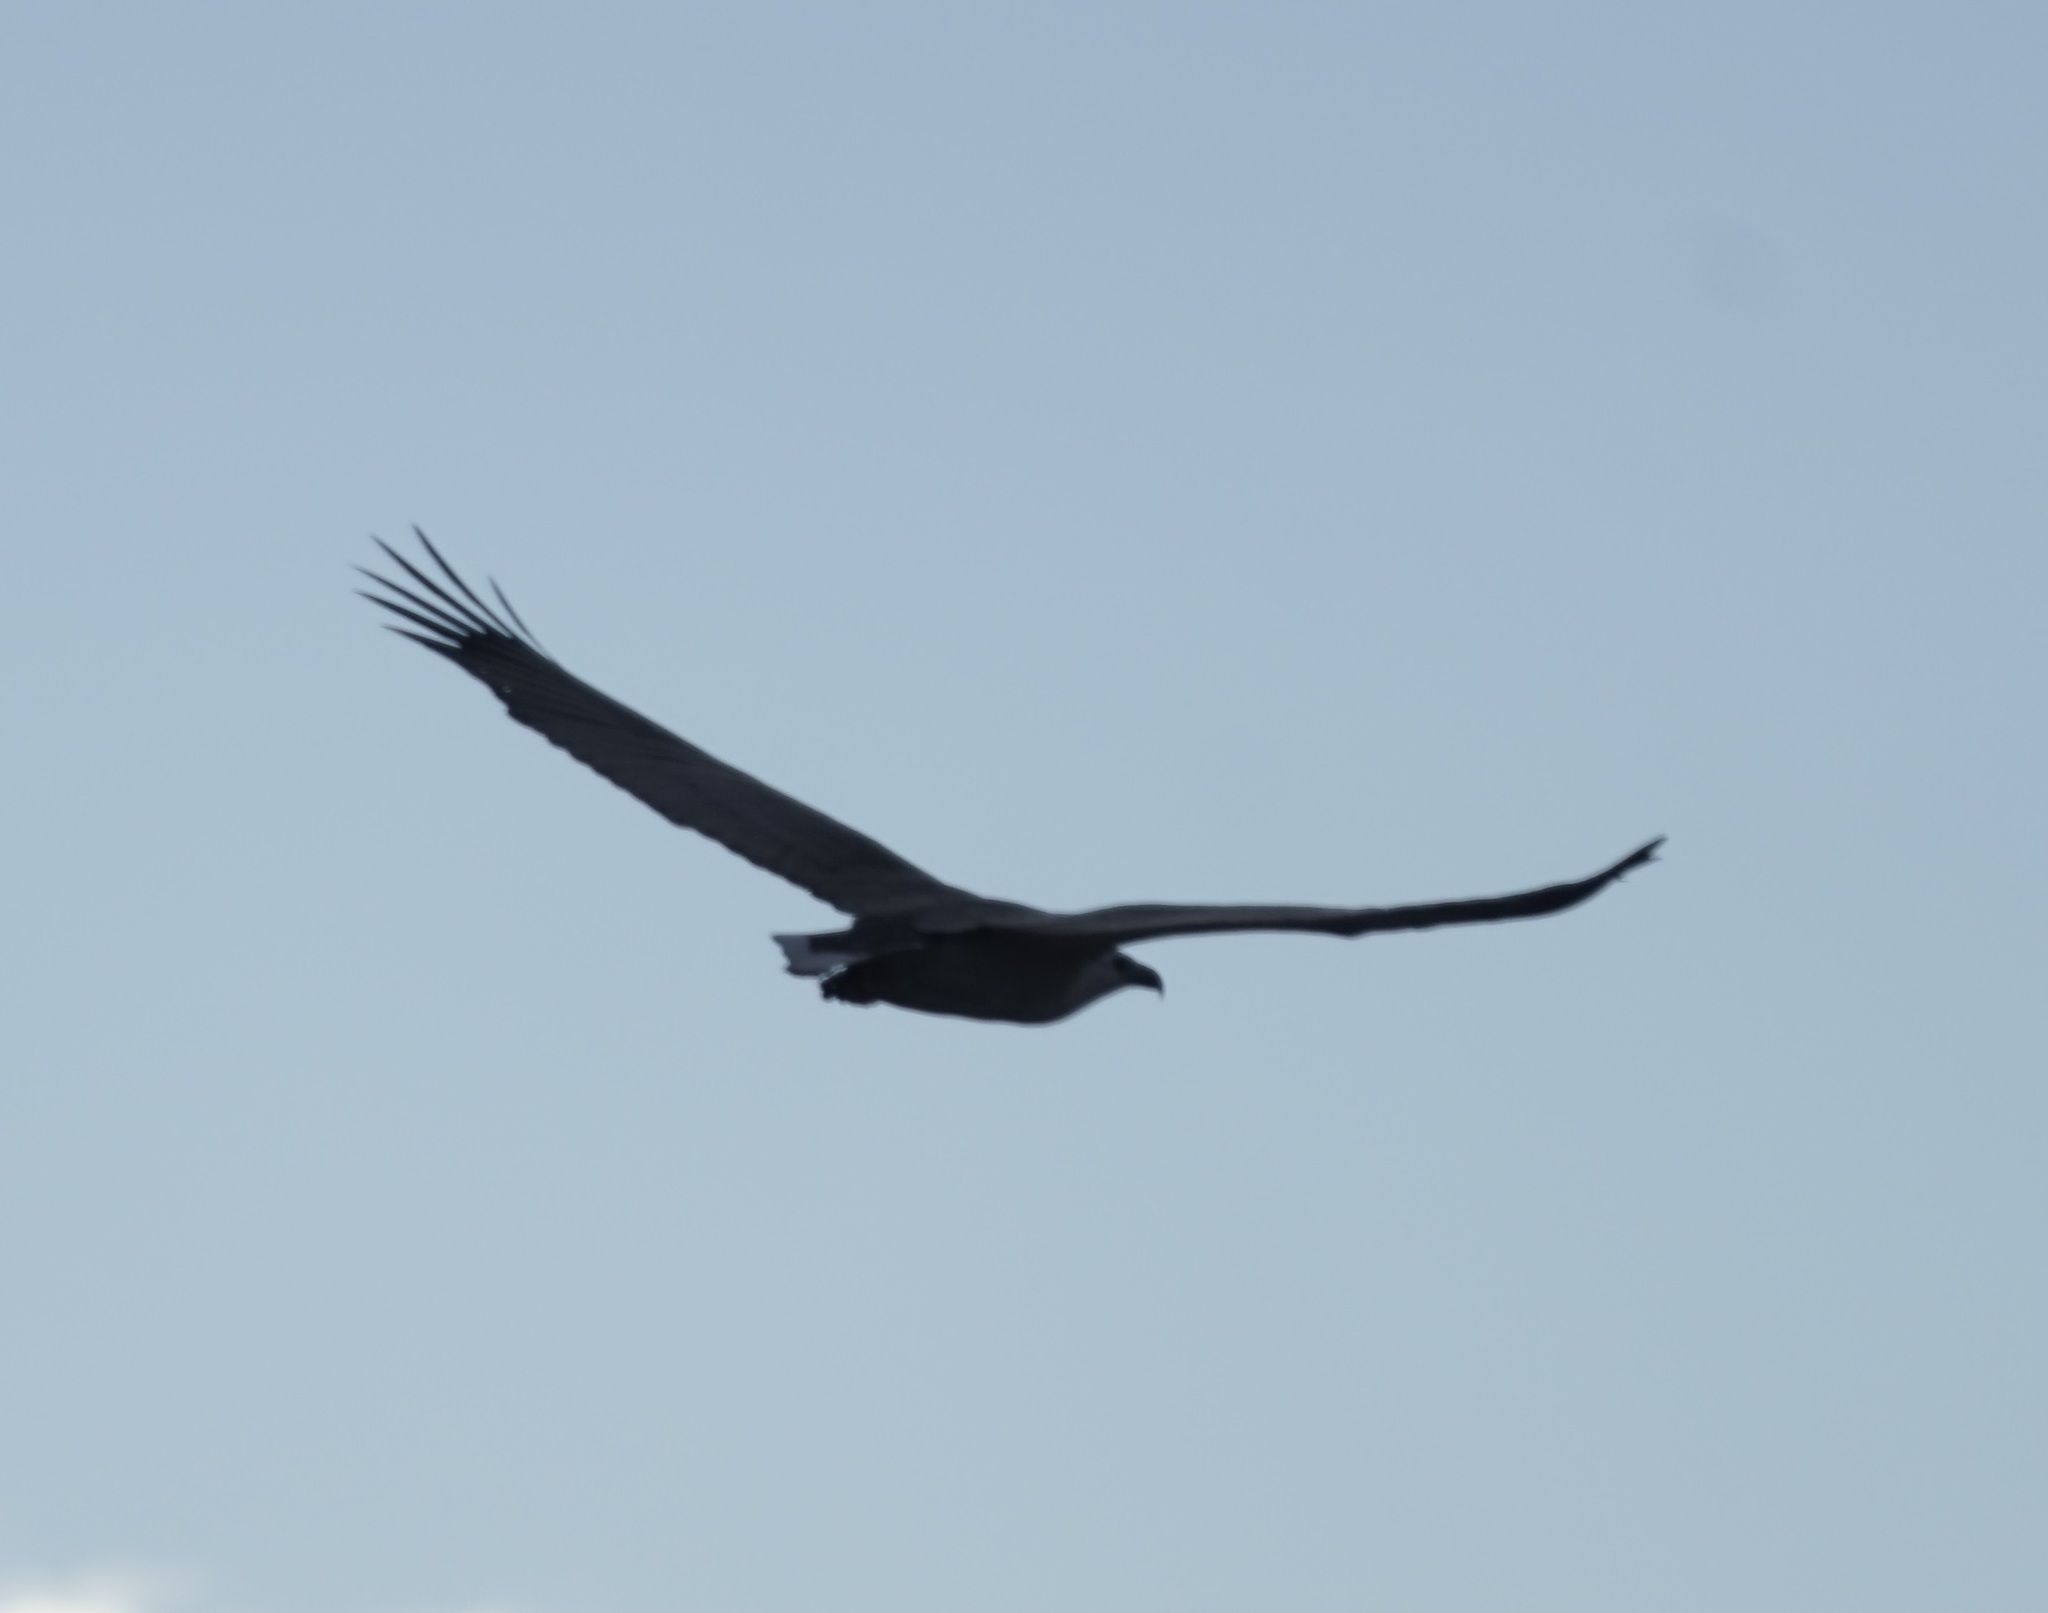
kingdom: Animalia
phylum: Chordata
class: Aves
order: Accipitriformes
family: Accipitridae
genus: Haliaeetus
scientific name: Haliaeetus leucogaster
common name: White-bellied sea eagle
